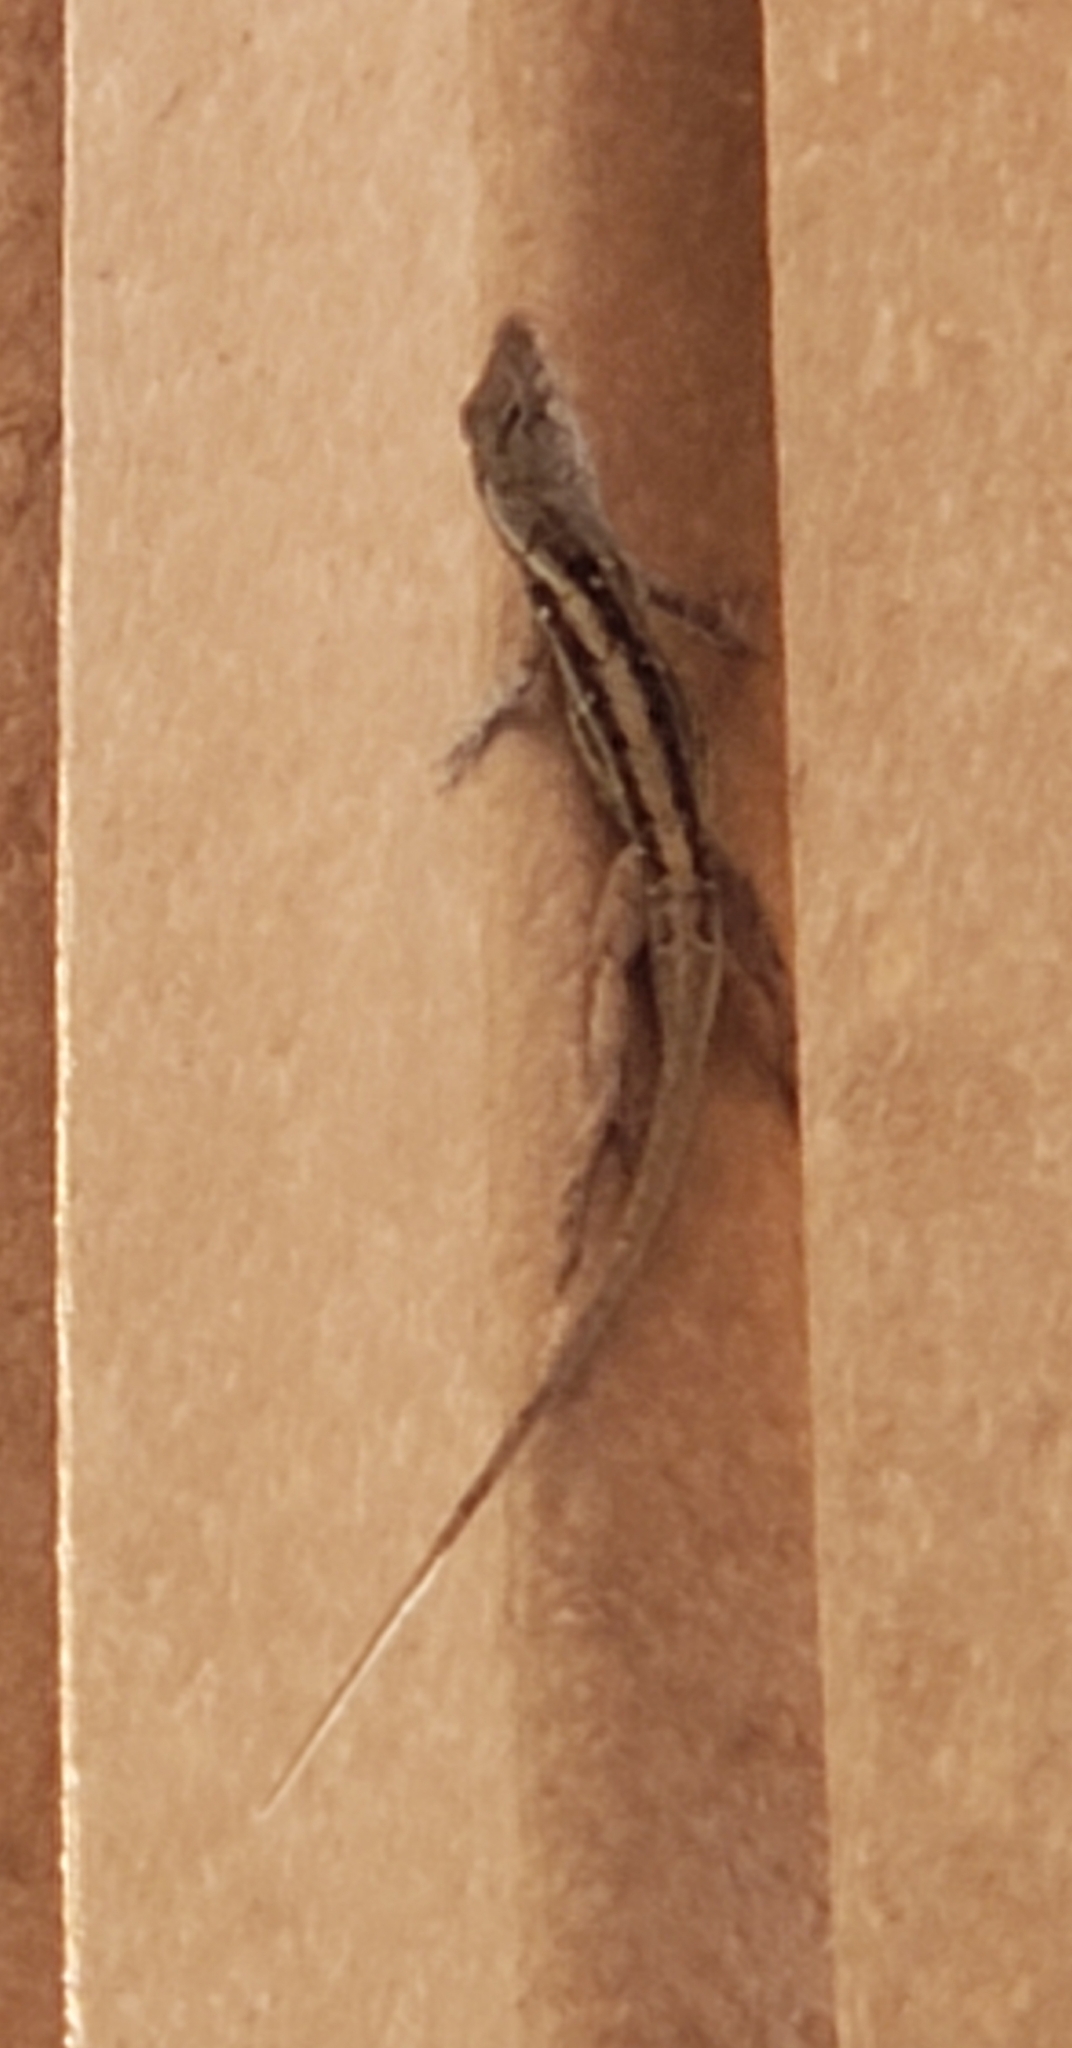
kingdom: Animalia
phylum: Chordata
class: Squamata
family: Dactyloidae
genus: Anolis
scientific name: Anolis sagrei
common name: Brown anole
